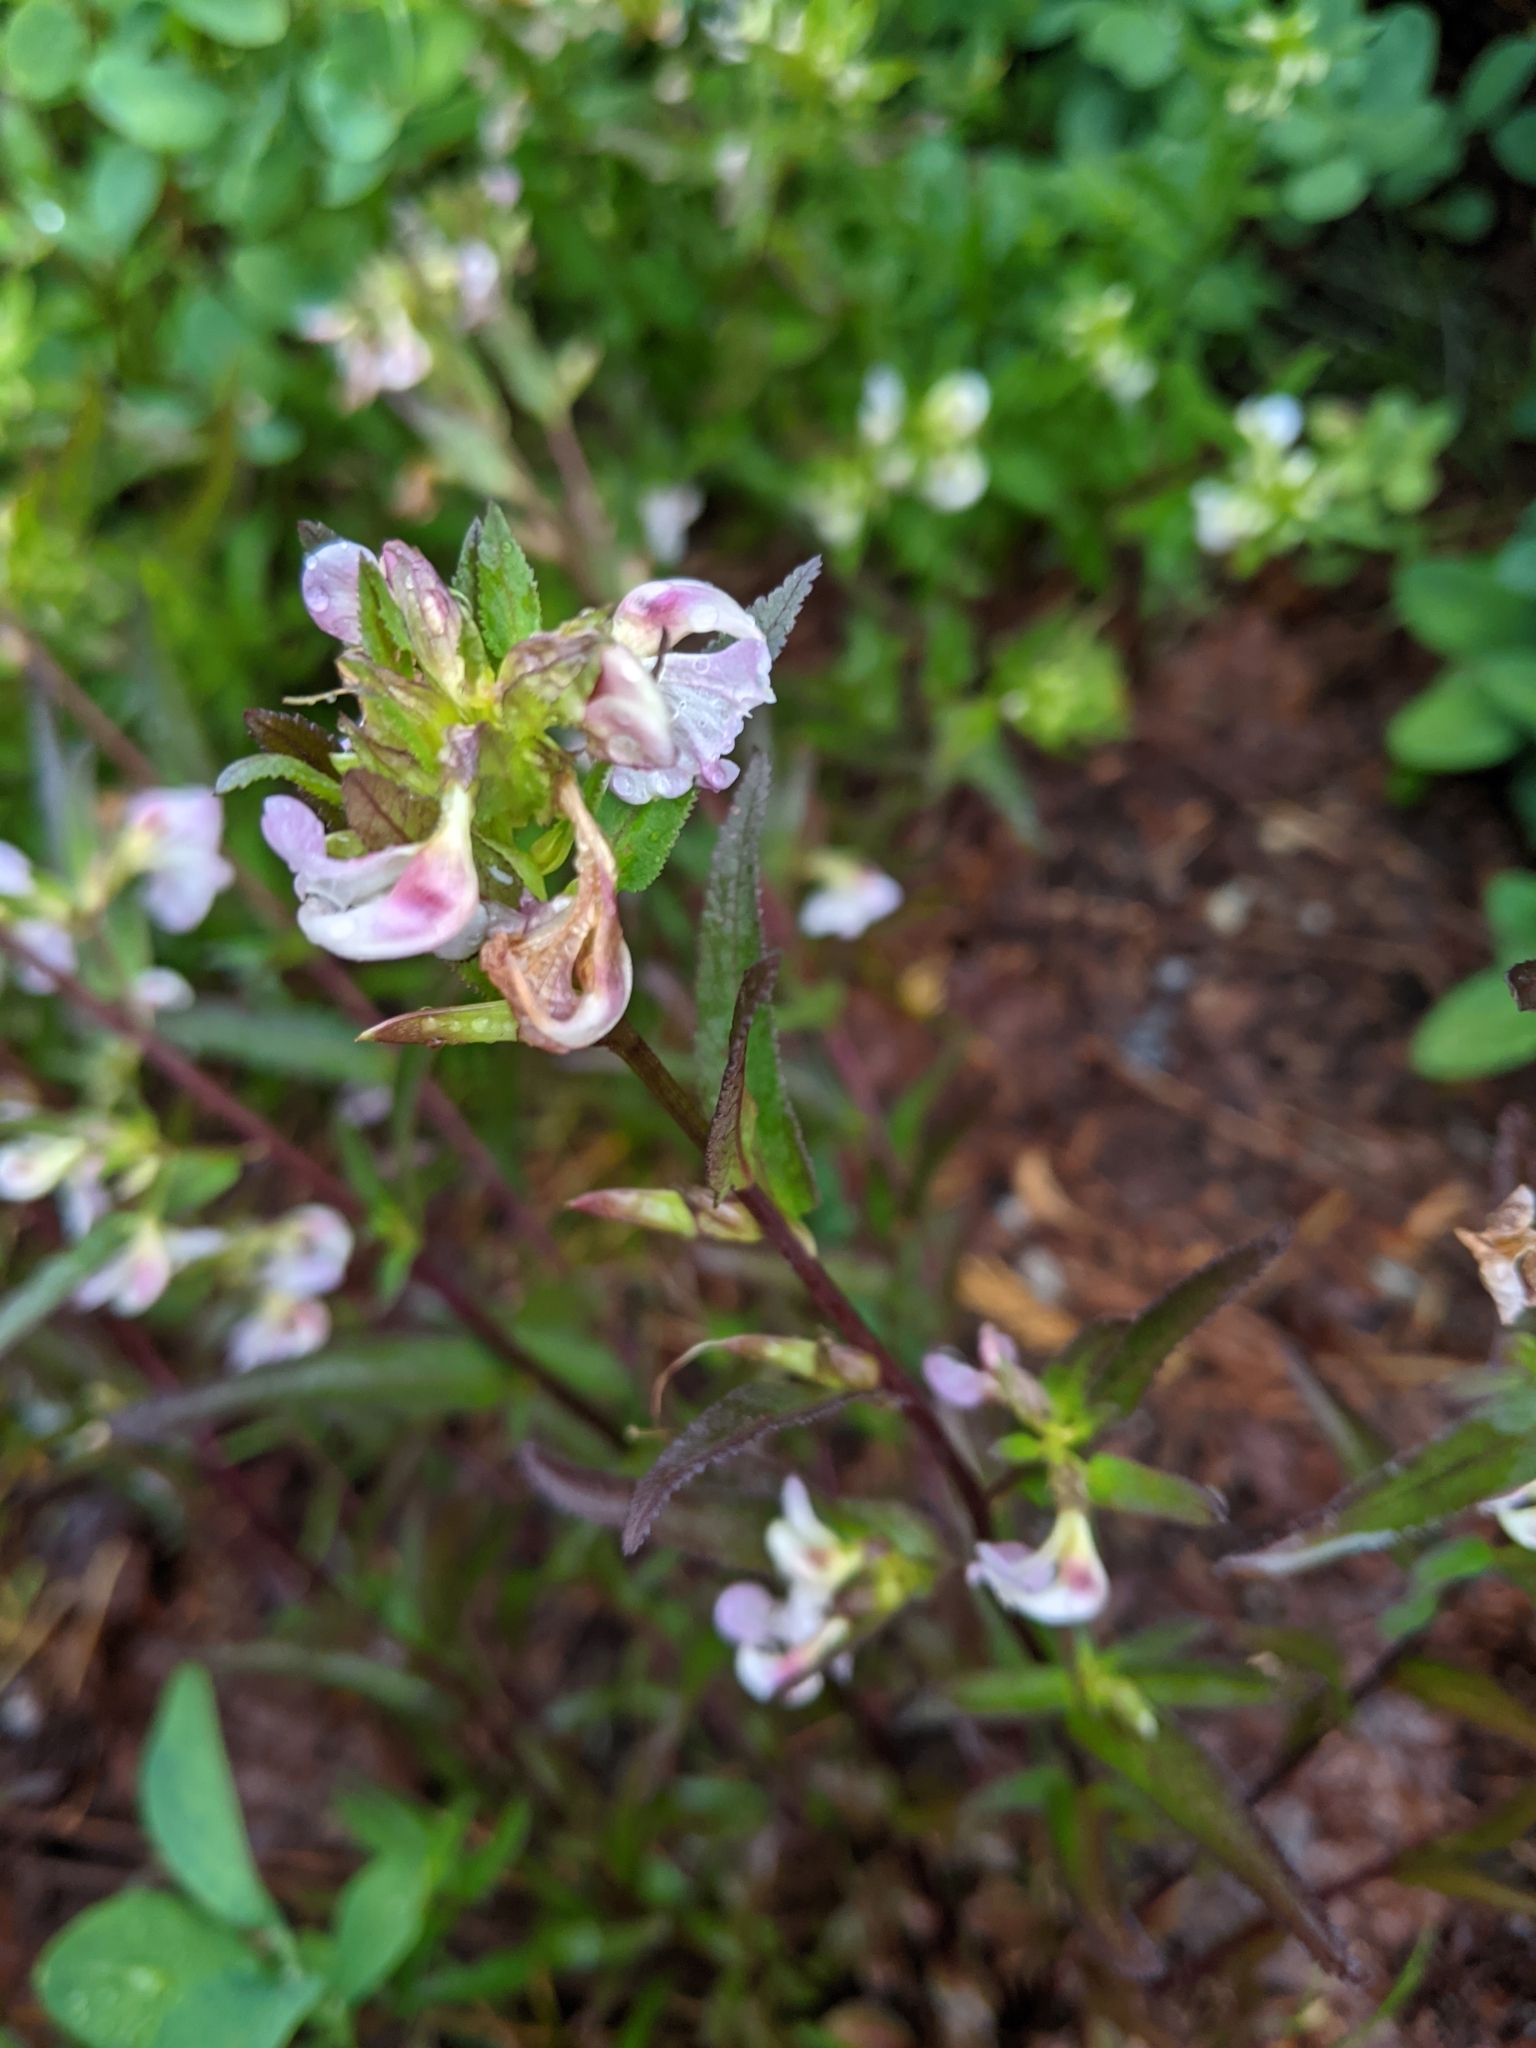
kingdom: Plantae
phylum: Tracheophyta
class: Magnoliopsida
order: Lamiales
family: Orobanchaceae
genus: Pedicularis
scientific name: Pedicularis racemosa
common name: Leafy lousewort
